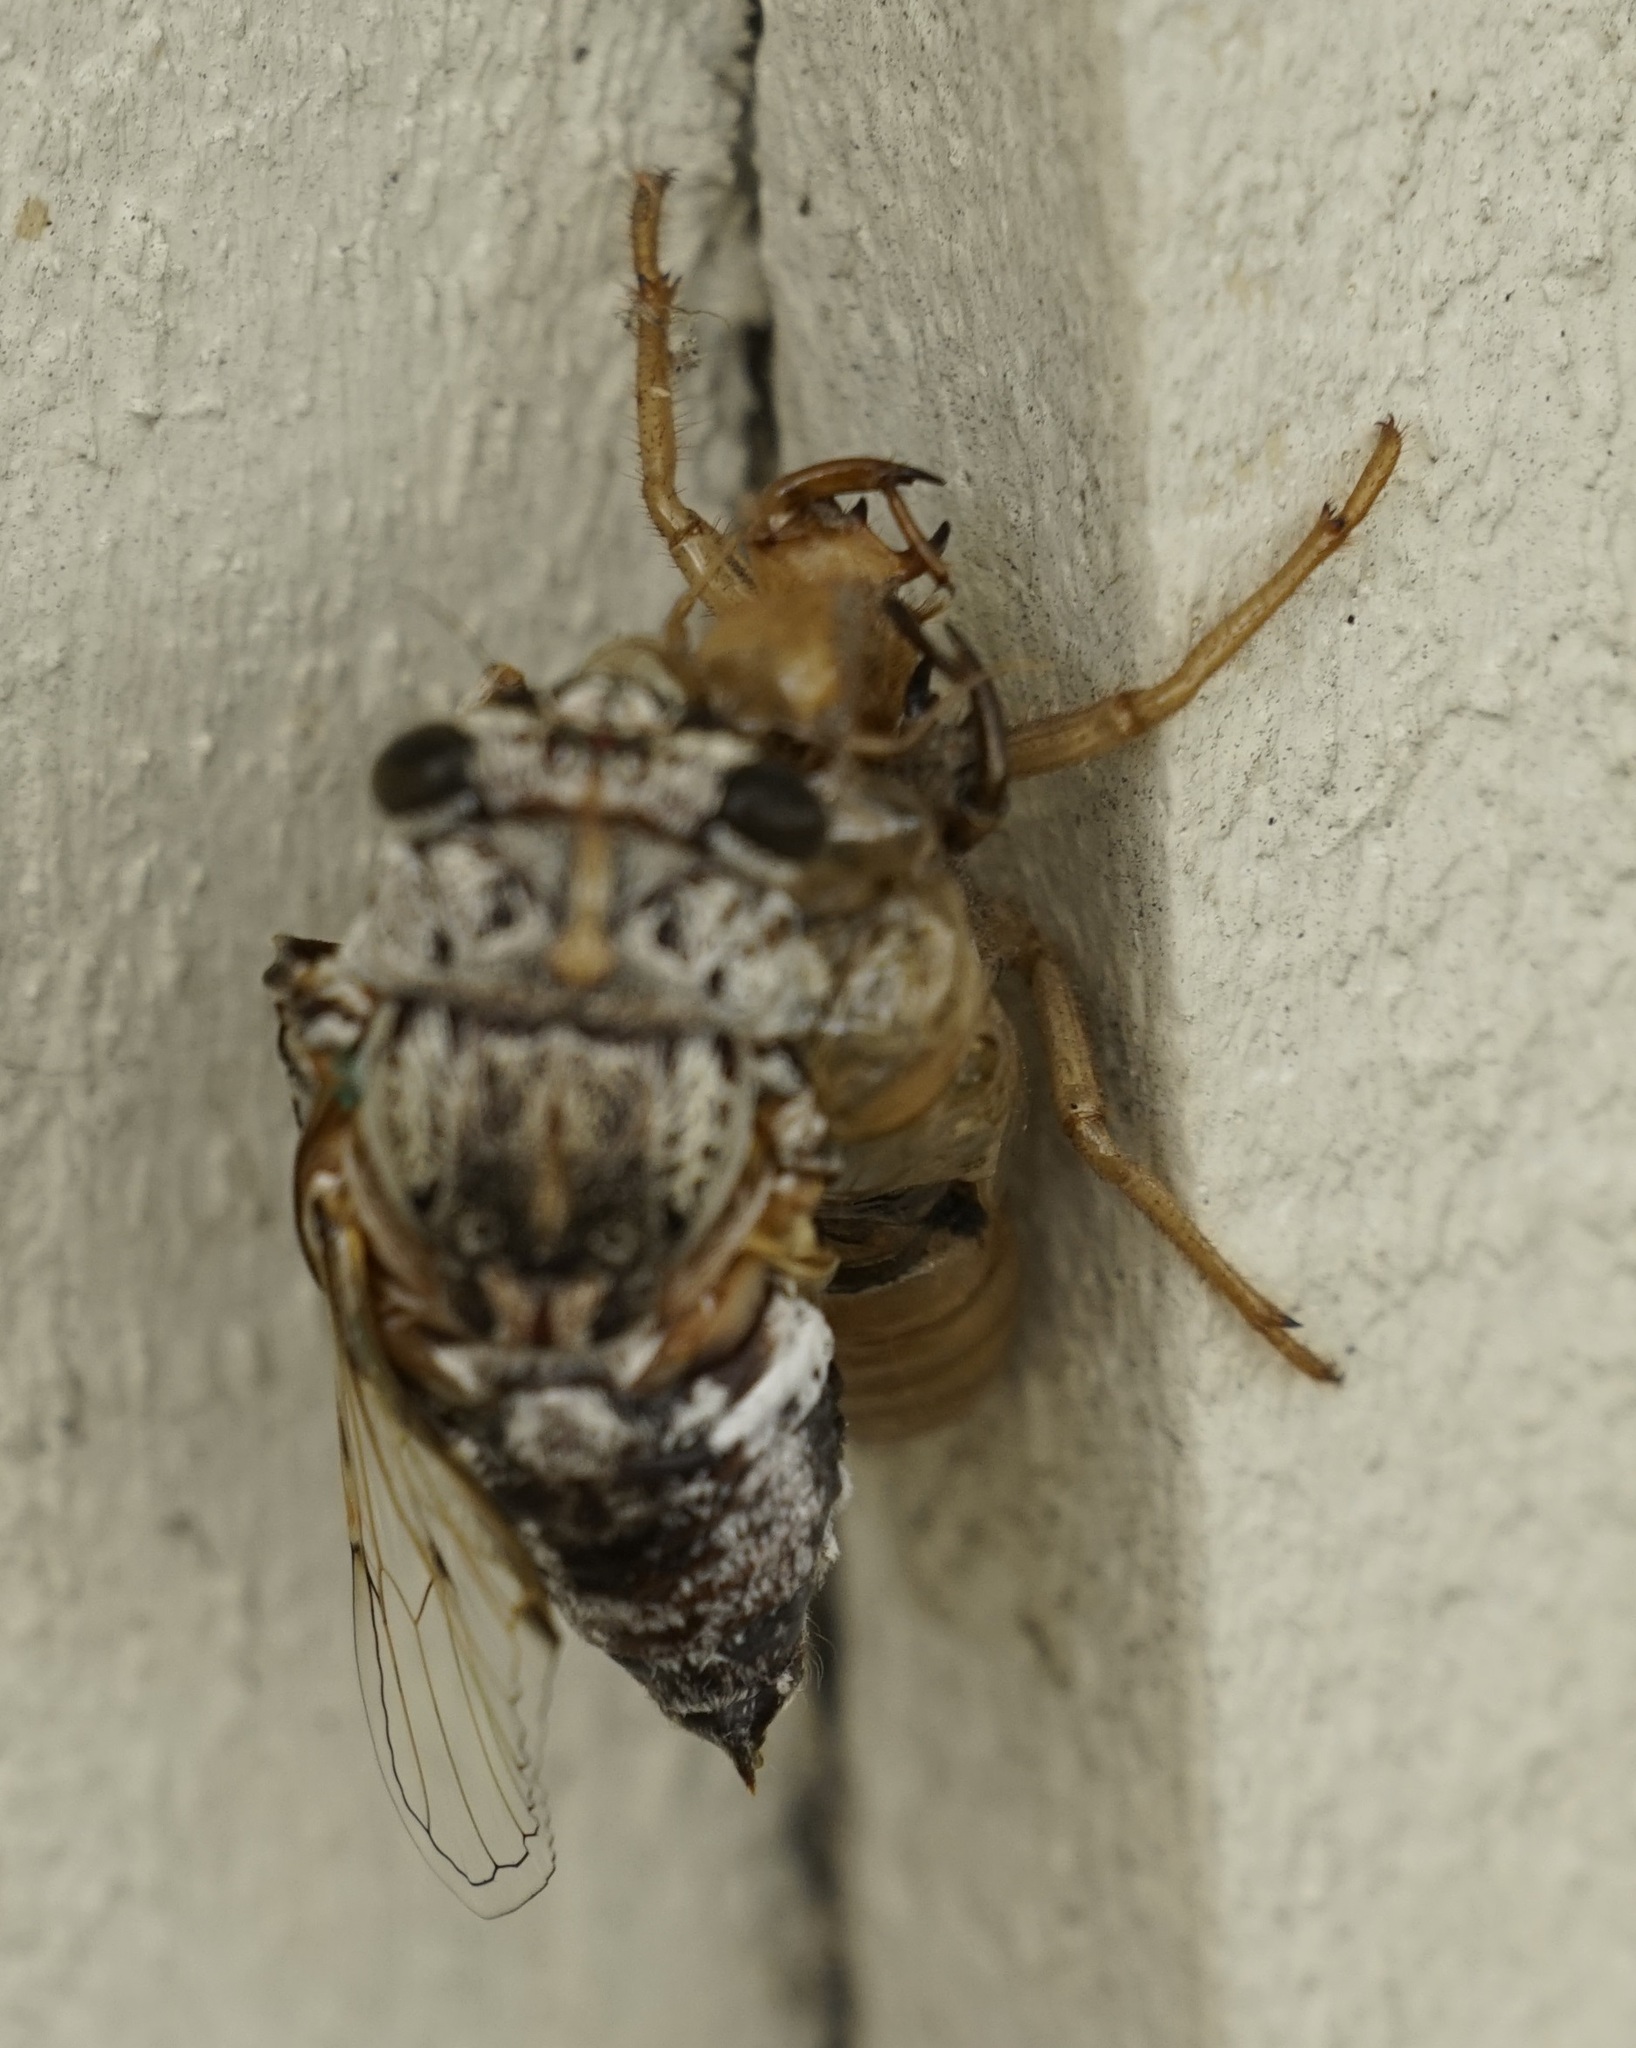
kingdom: Animalia
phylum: Arthropoda
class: Insecta
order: Hemiptera
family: Cicadidae
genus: Aleeta
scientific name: Aleeta curvicosta
